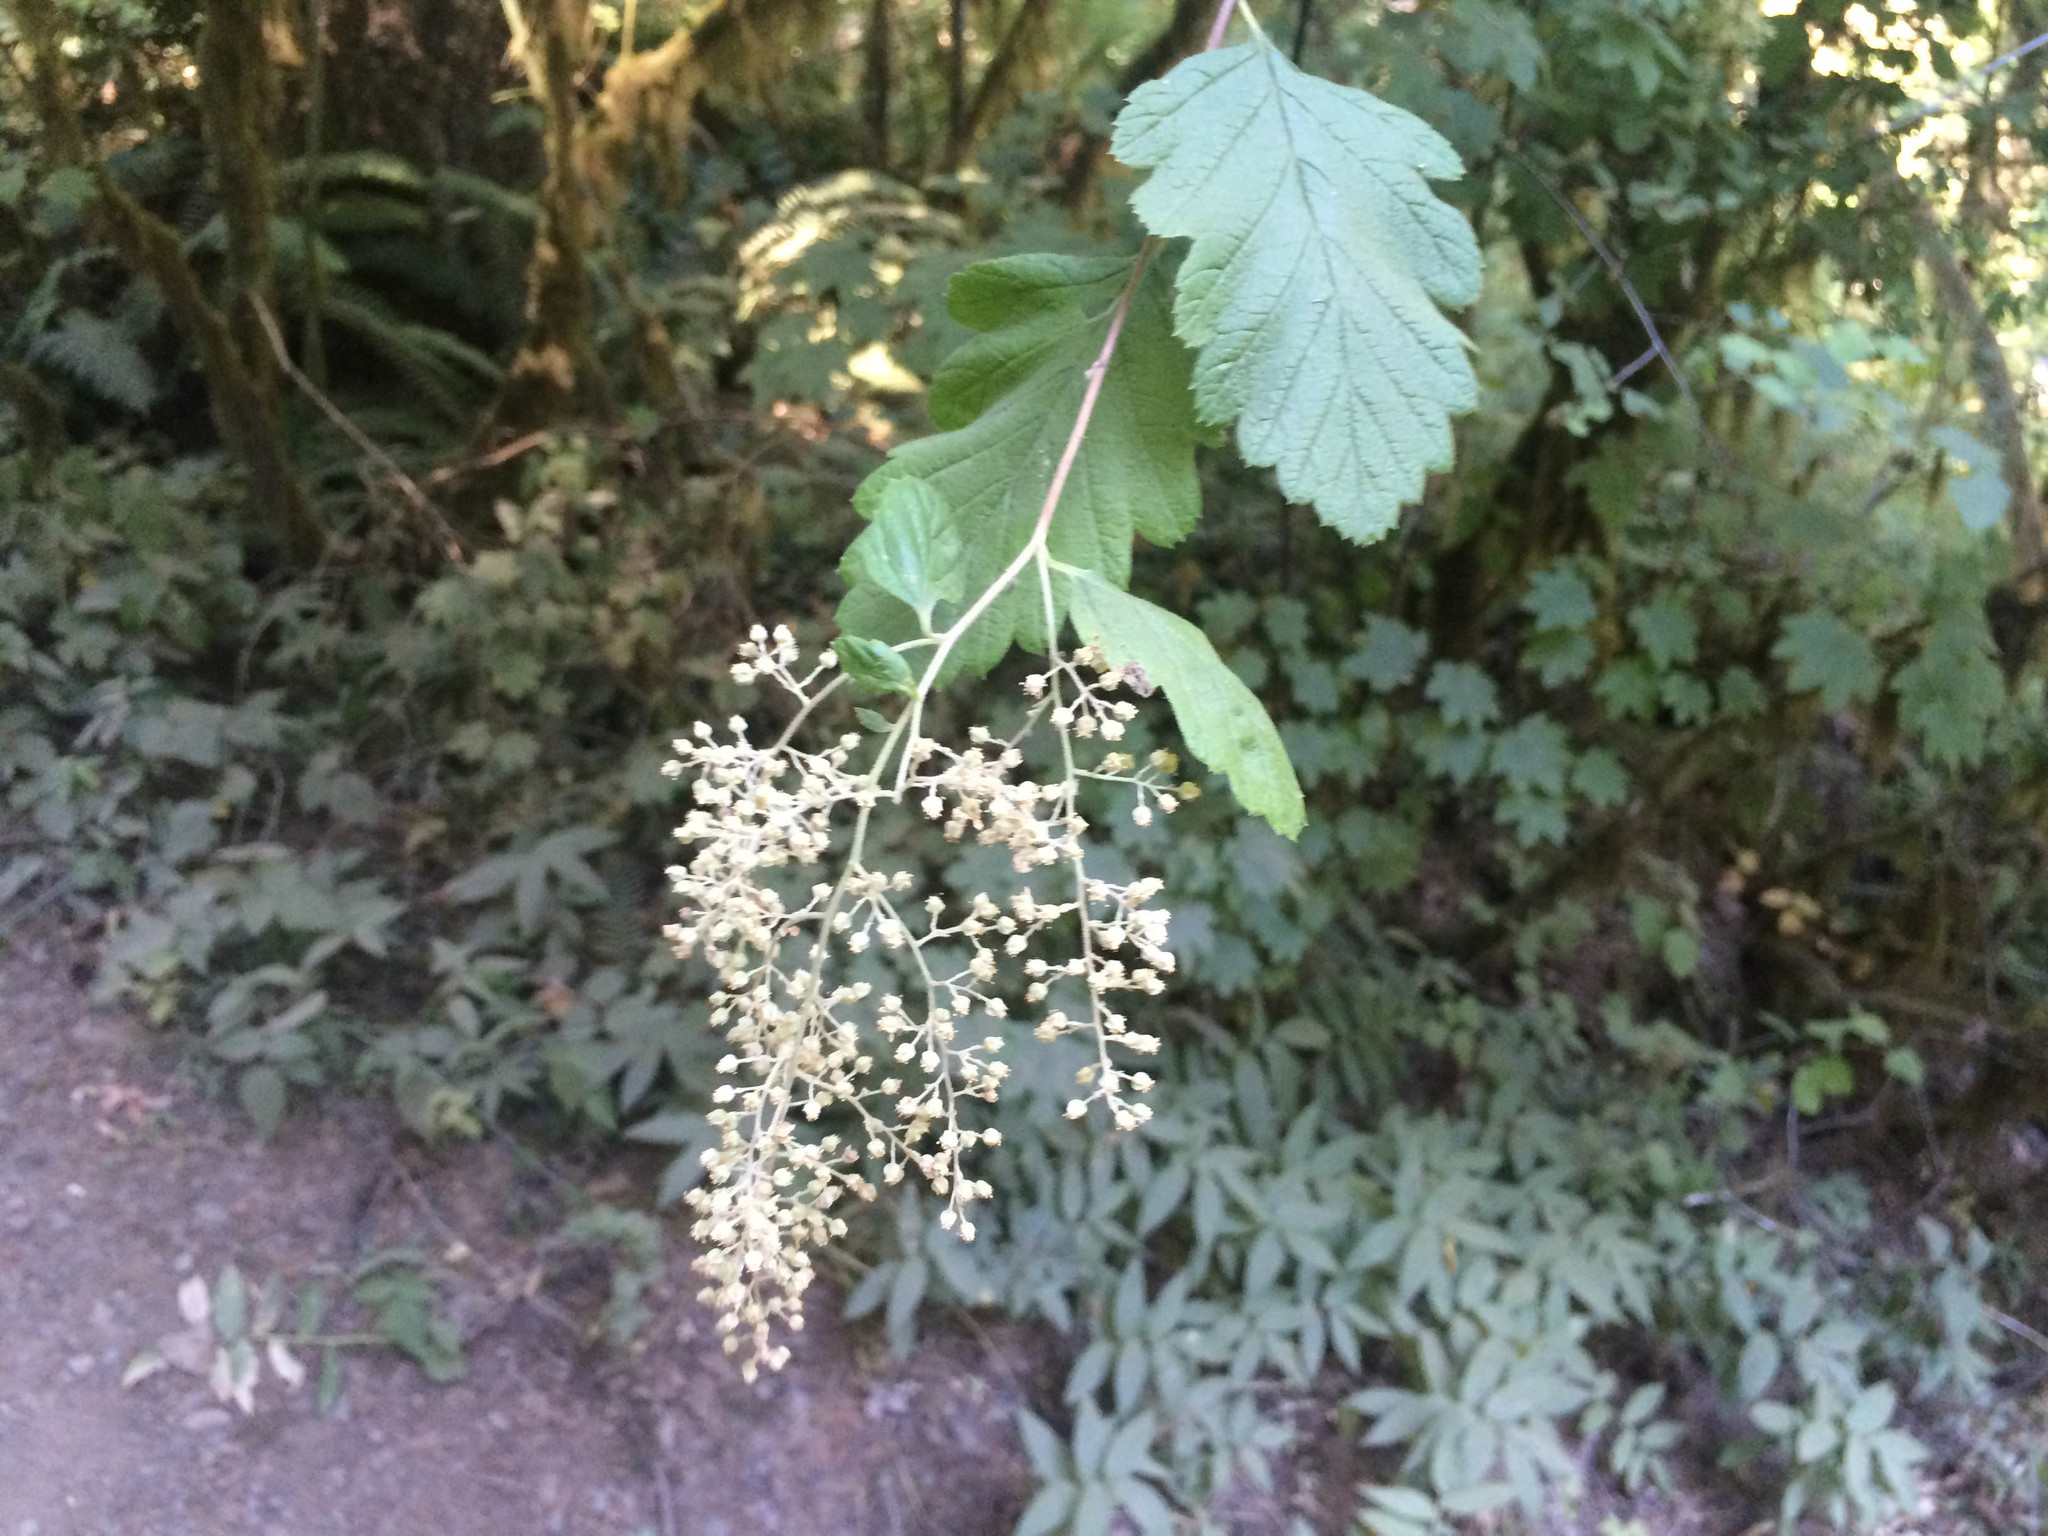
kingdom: Plantae
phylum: Tracheophyta
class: Magnoliopsida
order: Rosales
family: Rosaceae
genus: Holodiscus
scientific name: Holodiscus discolor
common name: Oceanspray
